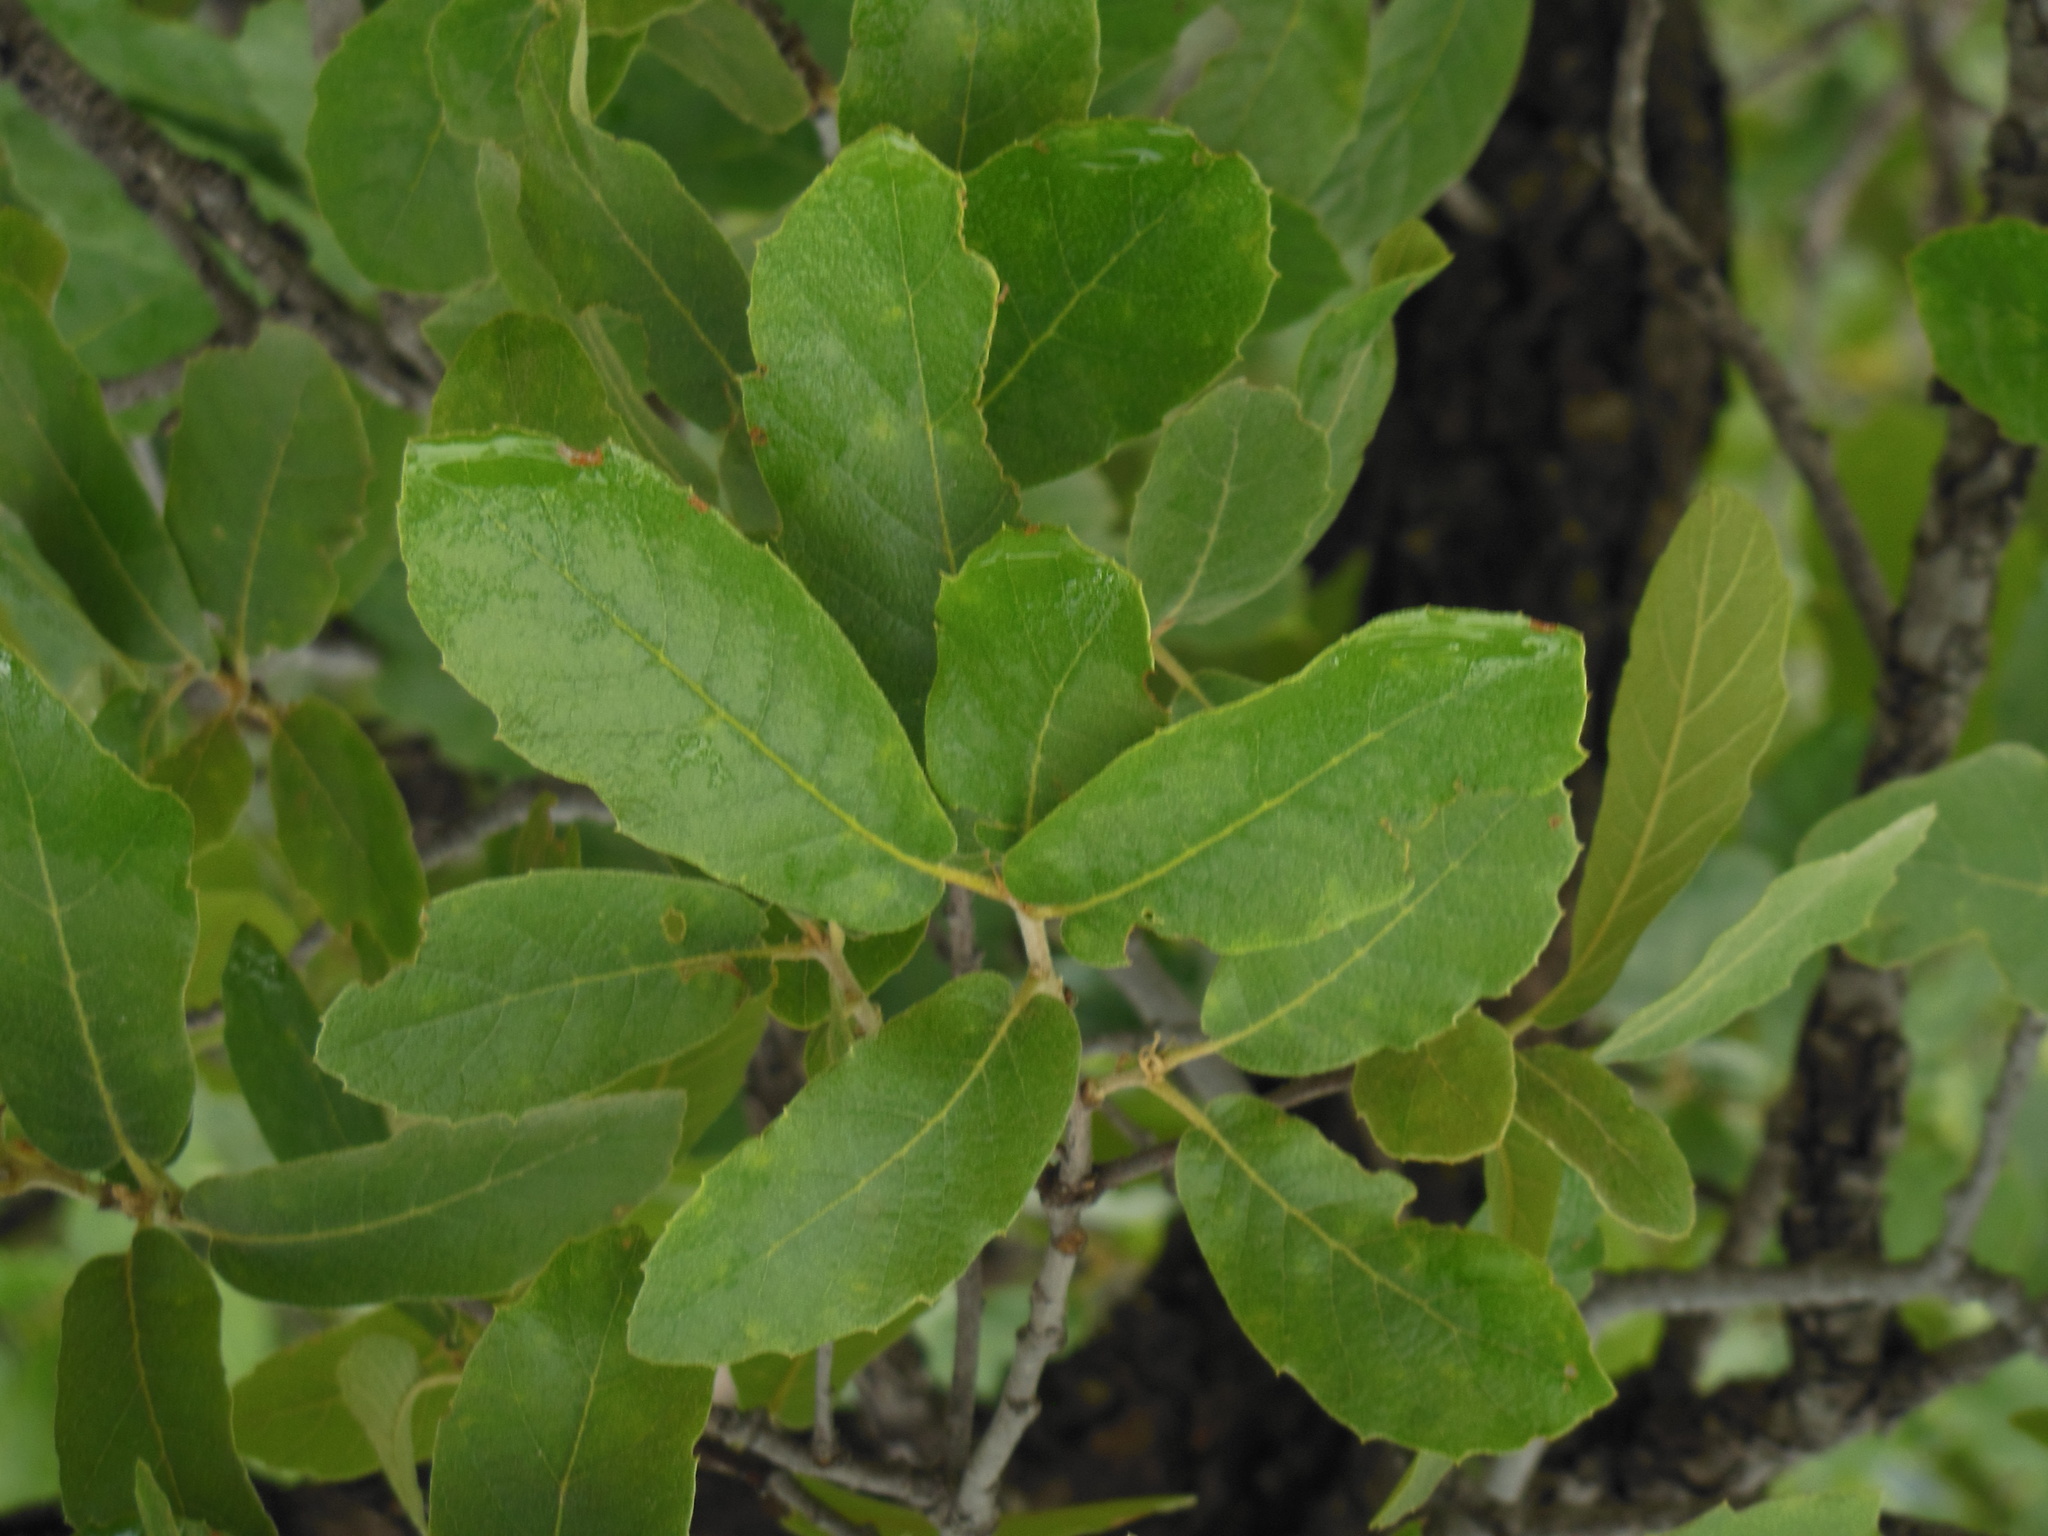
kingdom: Plantae
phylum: Tracheophyta
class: Magnoliopsida
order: Fagales
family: Fagaceae
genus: Quercus
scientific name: Quercus convallata
